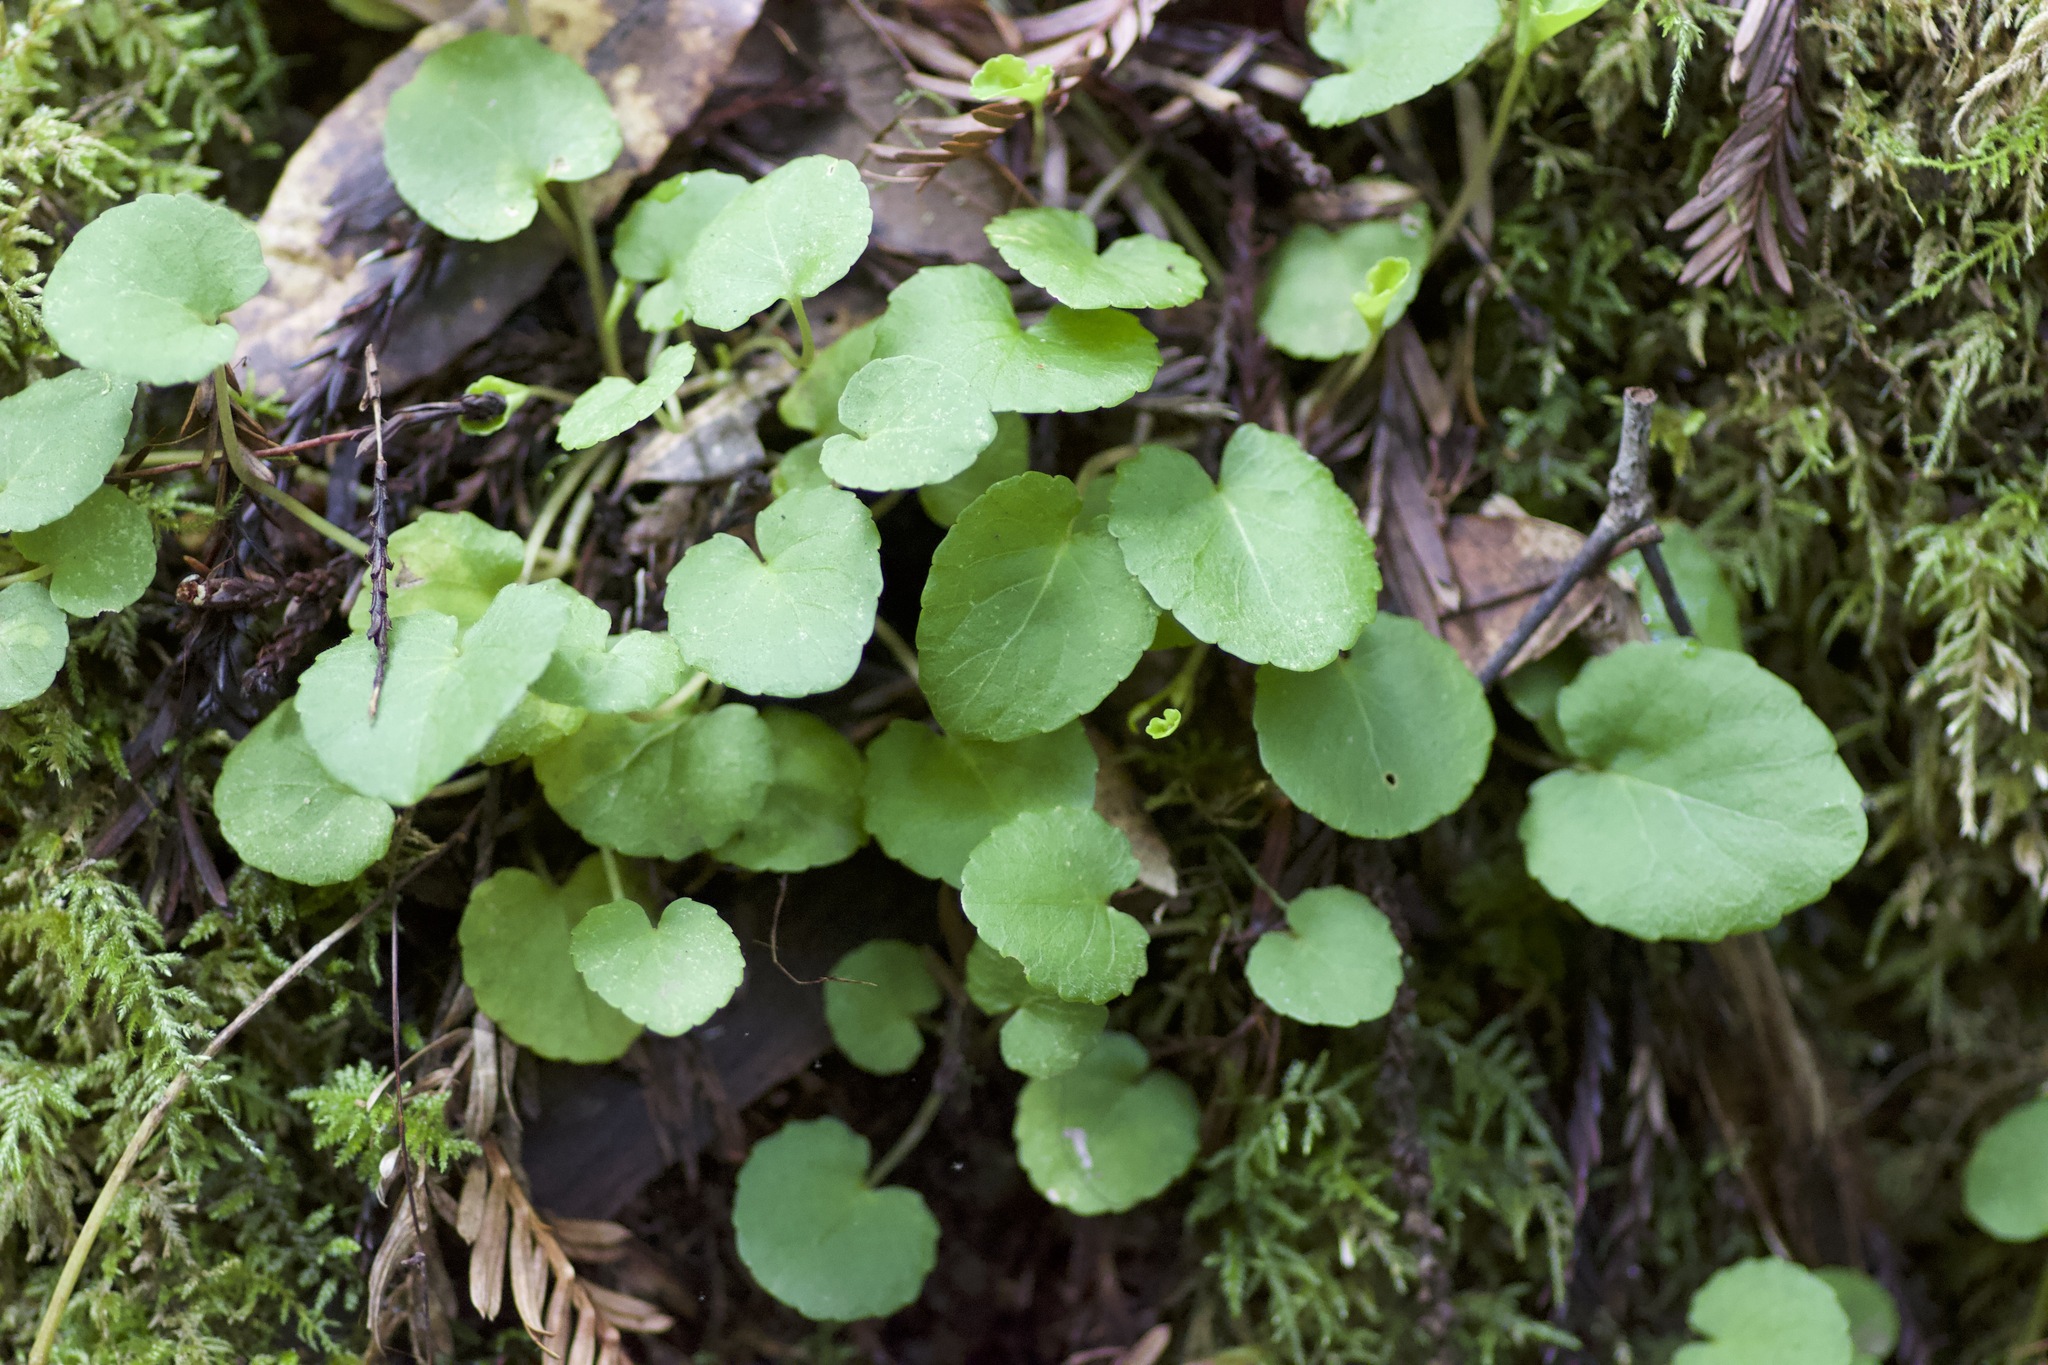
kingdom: Plantae
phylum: Tracheophyta
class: Magnoliopsida
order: Malpighiales
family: Violaceae
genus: Viola
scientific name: Viola sempervirens
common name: Evergreen violet
